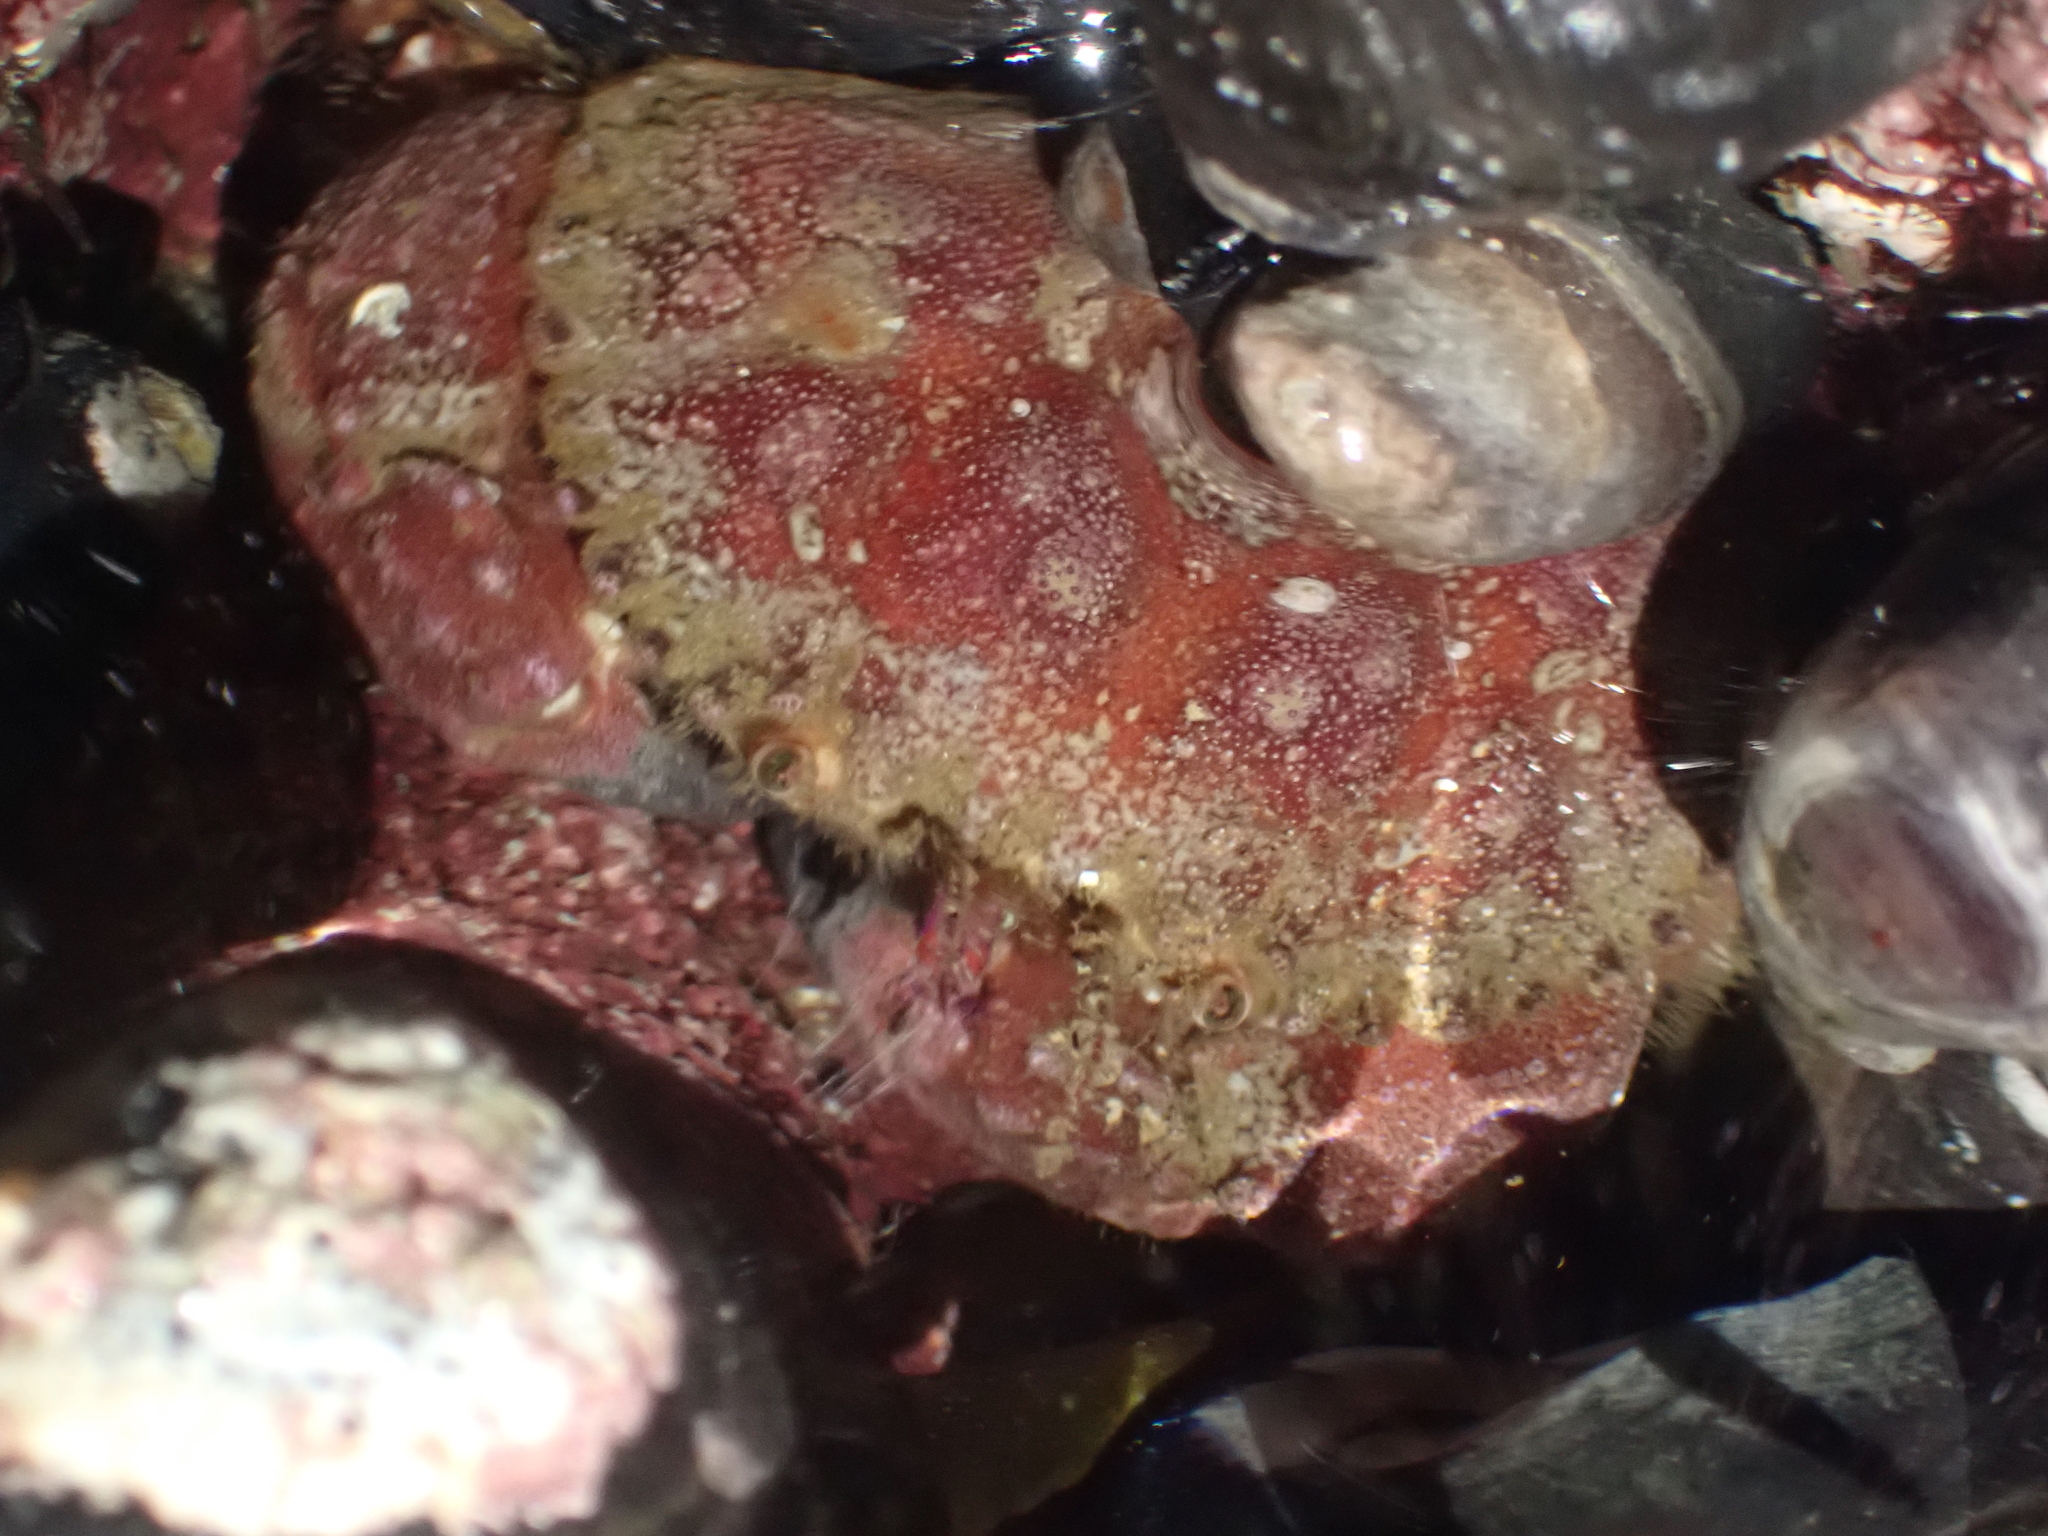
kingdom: Animalia
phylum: Arthropoda
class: Malacostraca
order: Decapoda
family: Cancridae
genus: Glebocarcinus
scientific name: Glebocarcinus oregonensis
